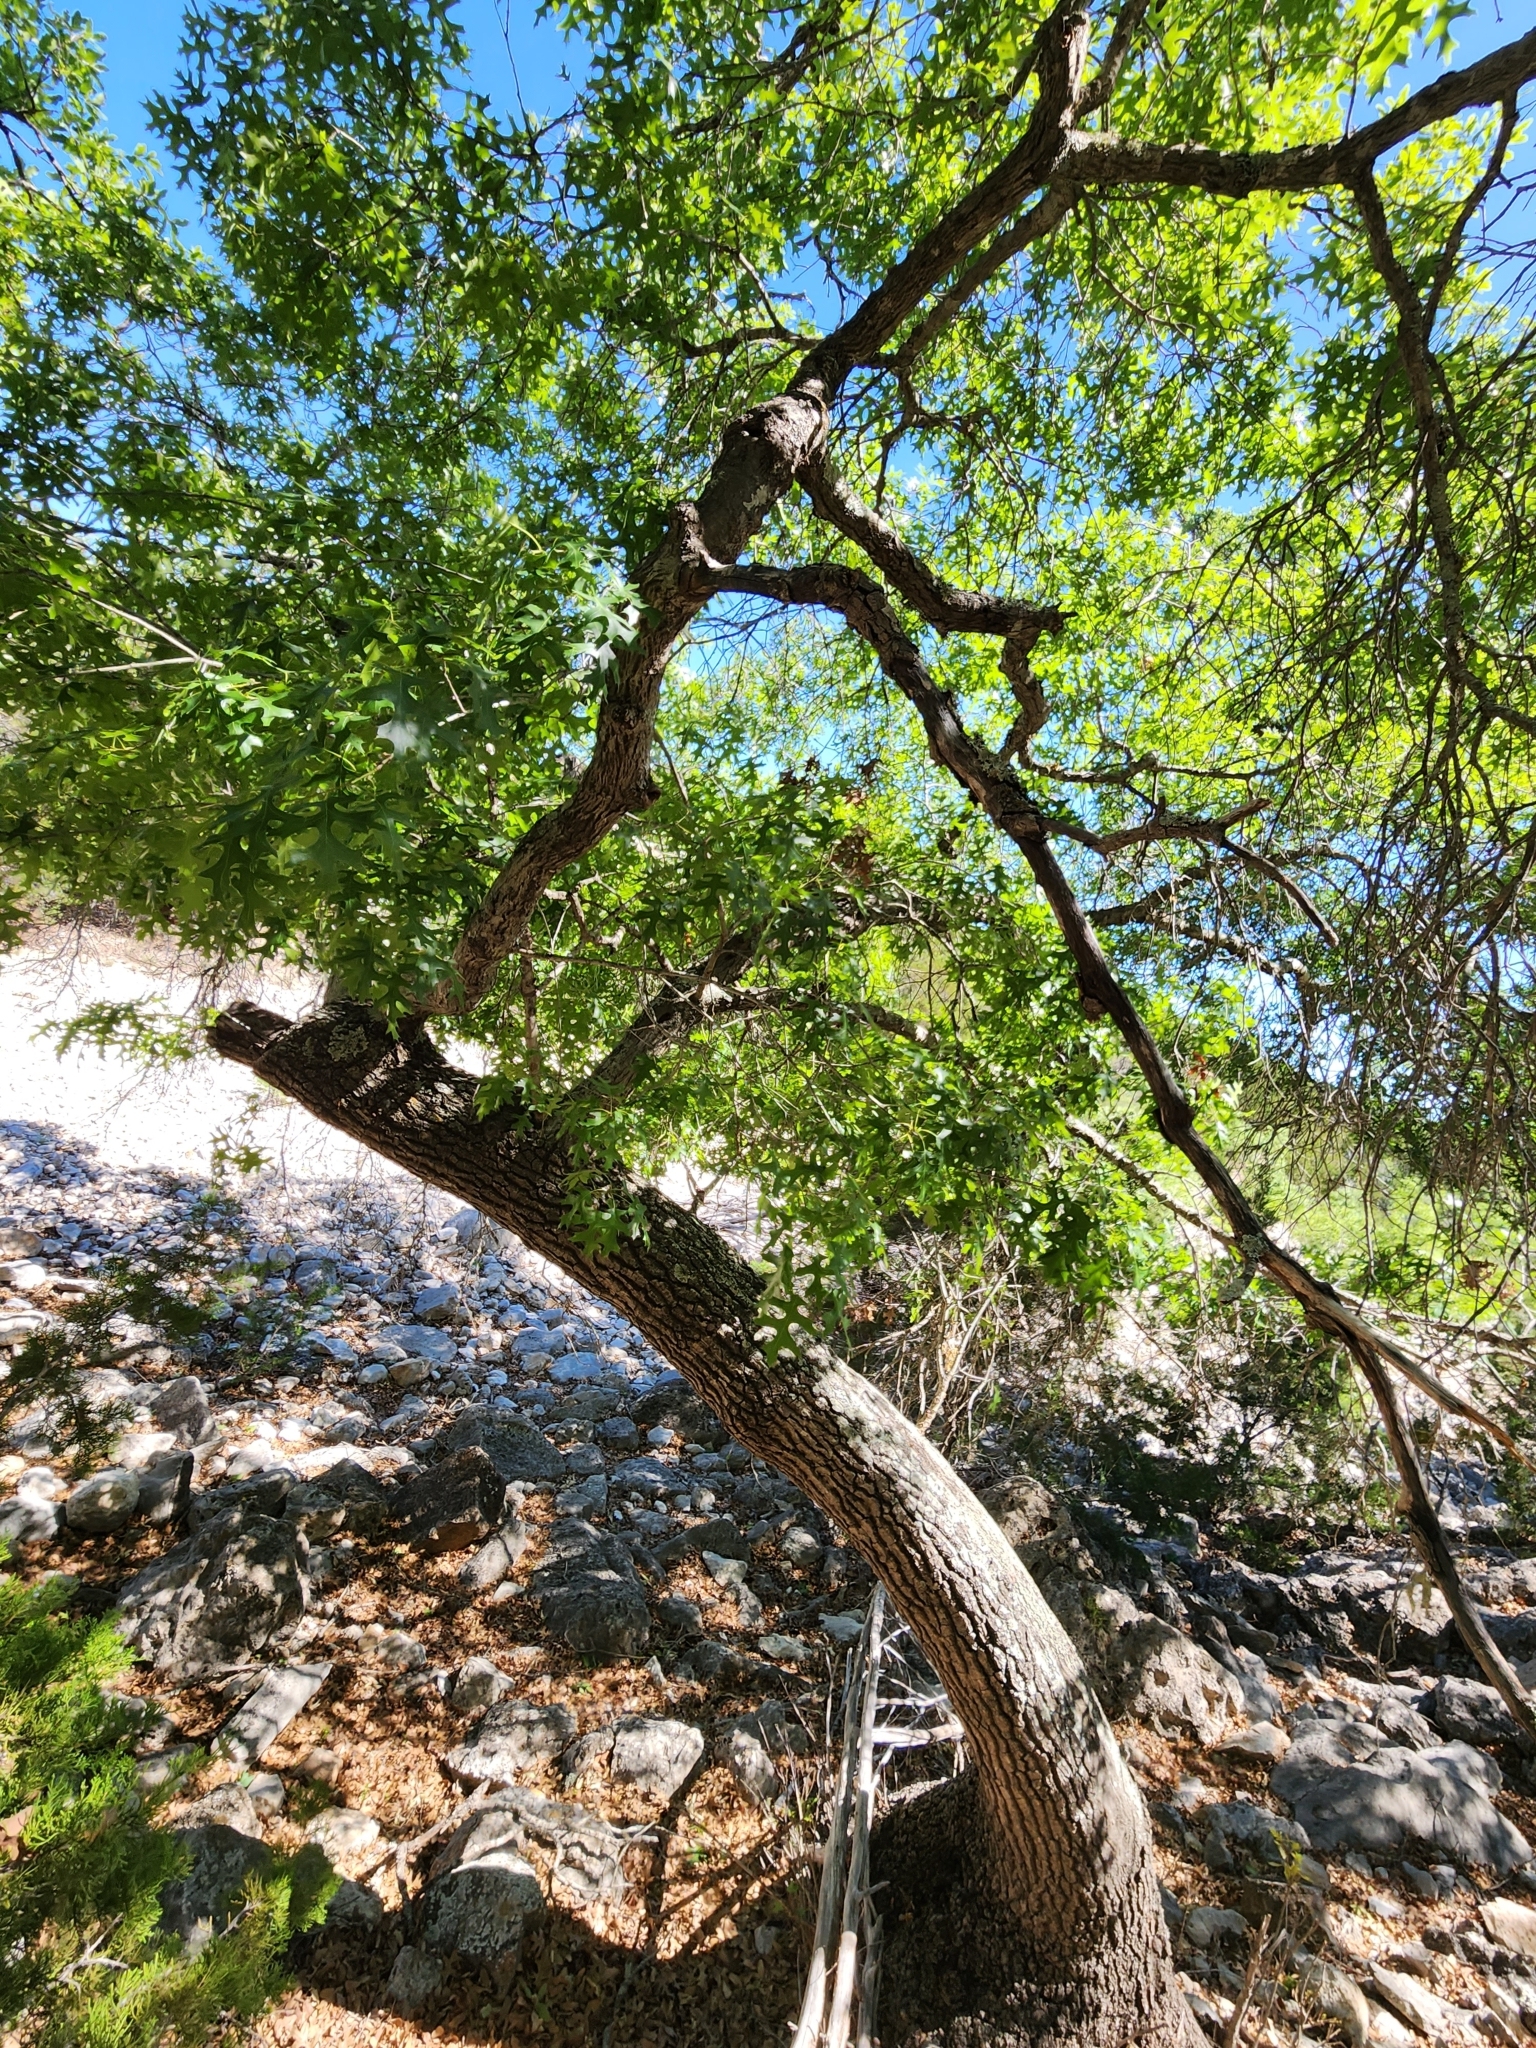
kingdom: Plantae
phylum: Tracheophyta
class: Magnoliopsida
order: Fagales
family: Fagaceae
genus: Quercus
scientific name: Quercus buckleyi
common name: Buckley oak
